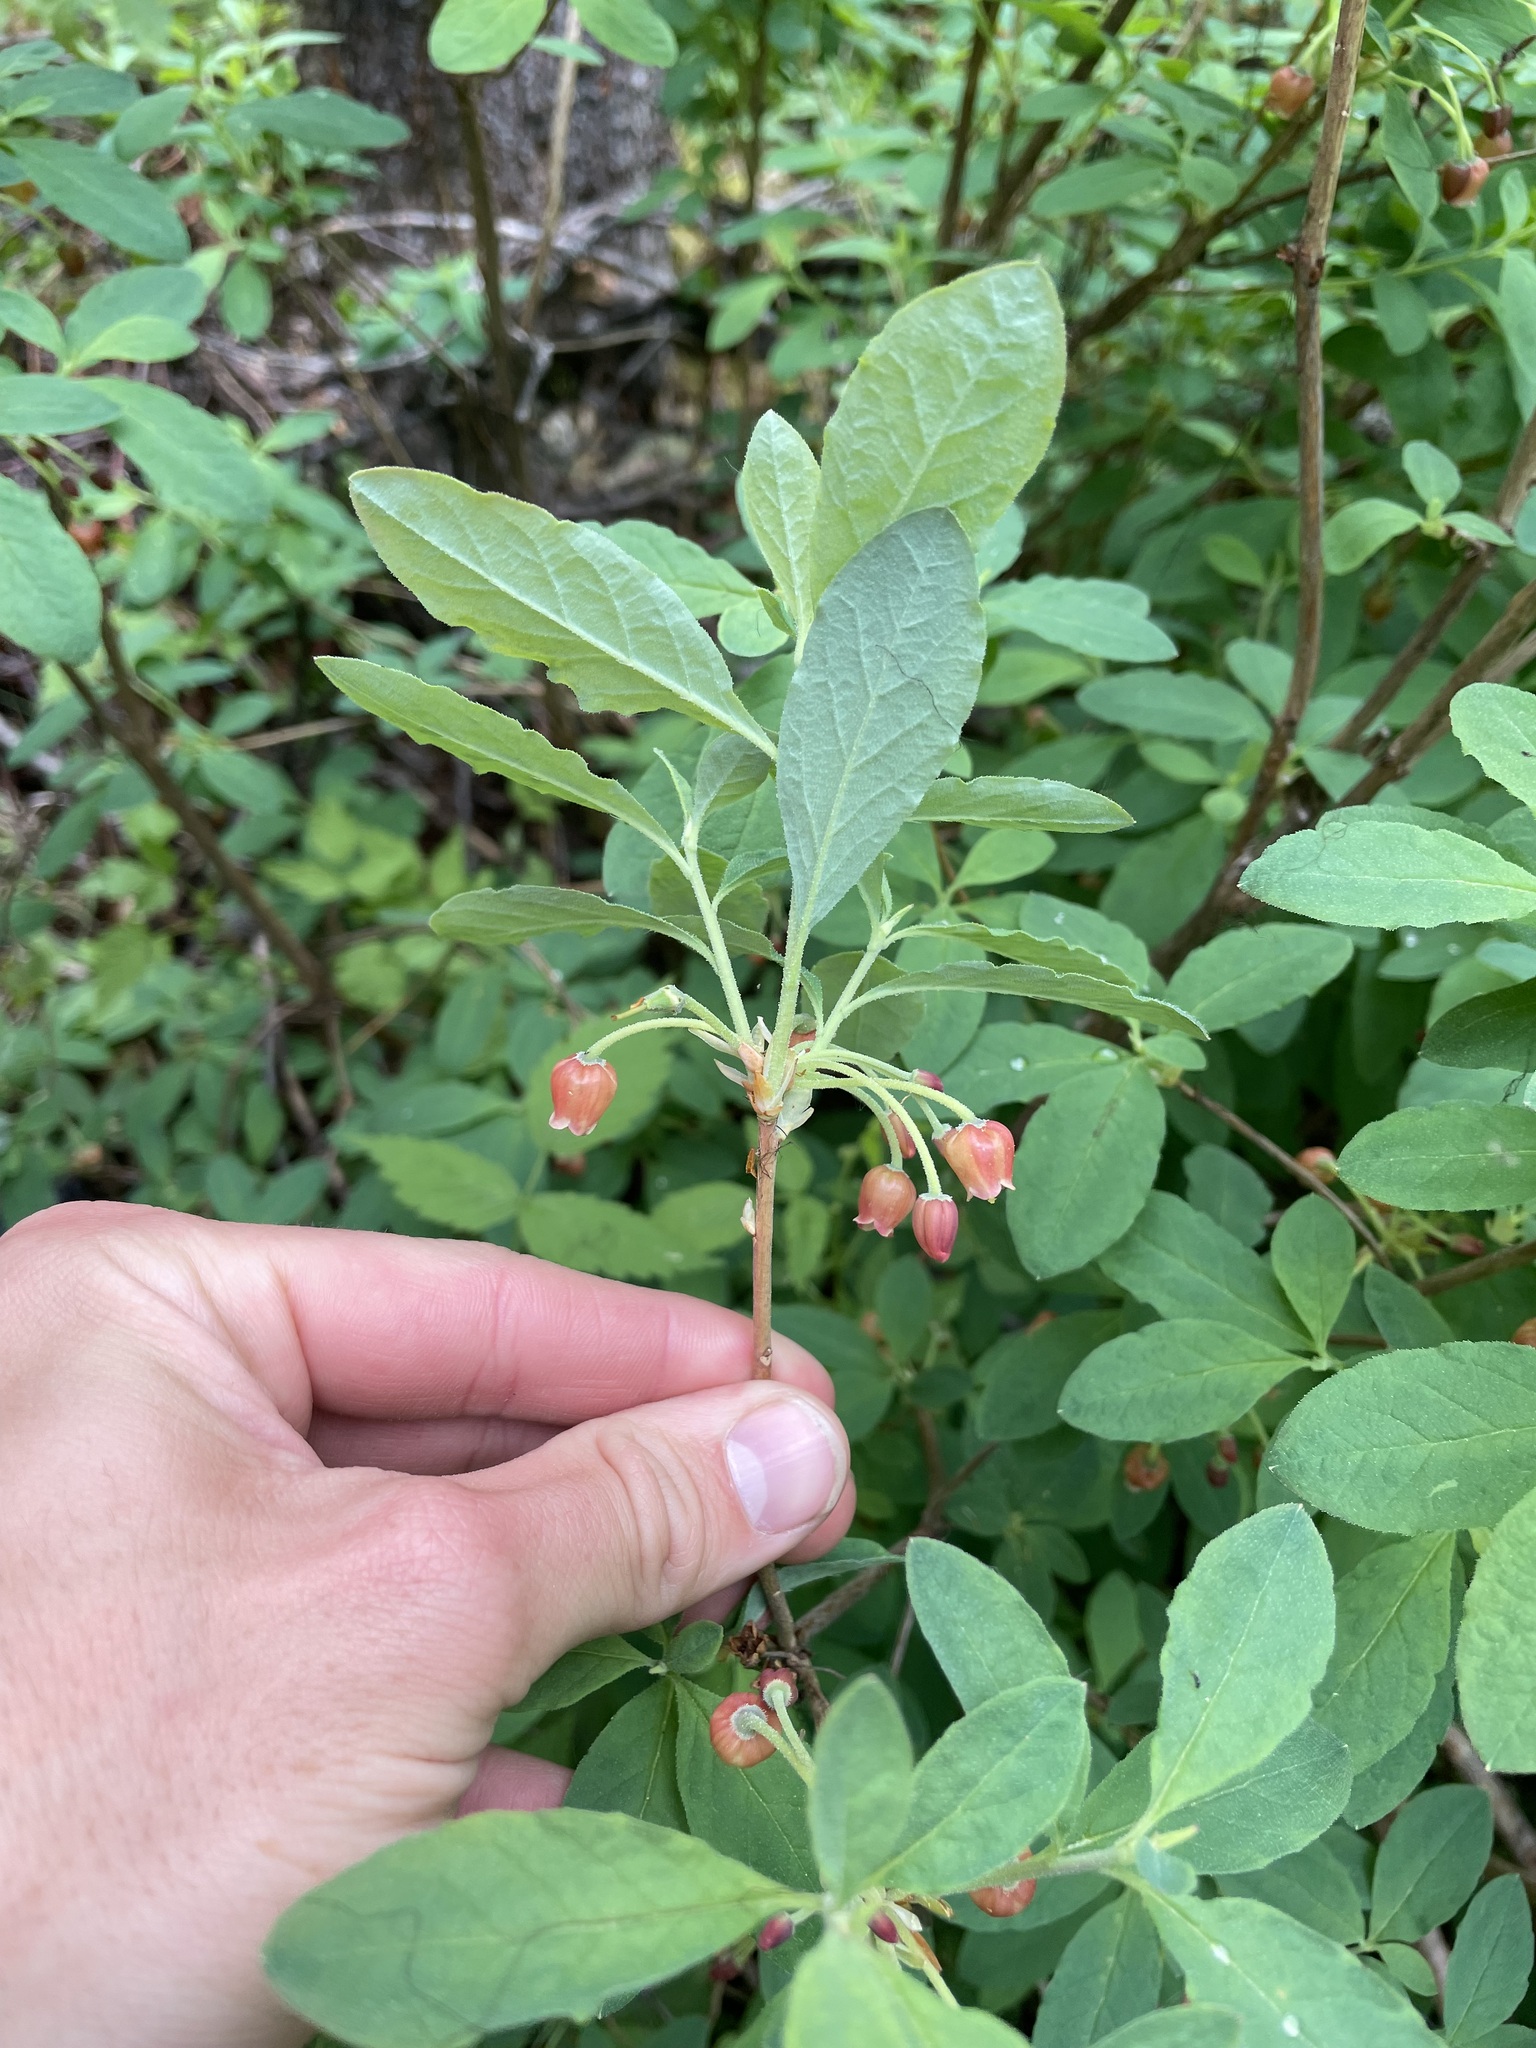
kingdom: Plantae
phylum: Tracheophyta
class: Magnoliopsida
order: Ericales
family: Ericaceae
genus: Rhododendron
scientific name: Rhododendron menziesii
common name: Pacific menziesia
